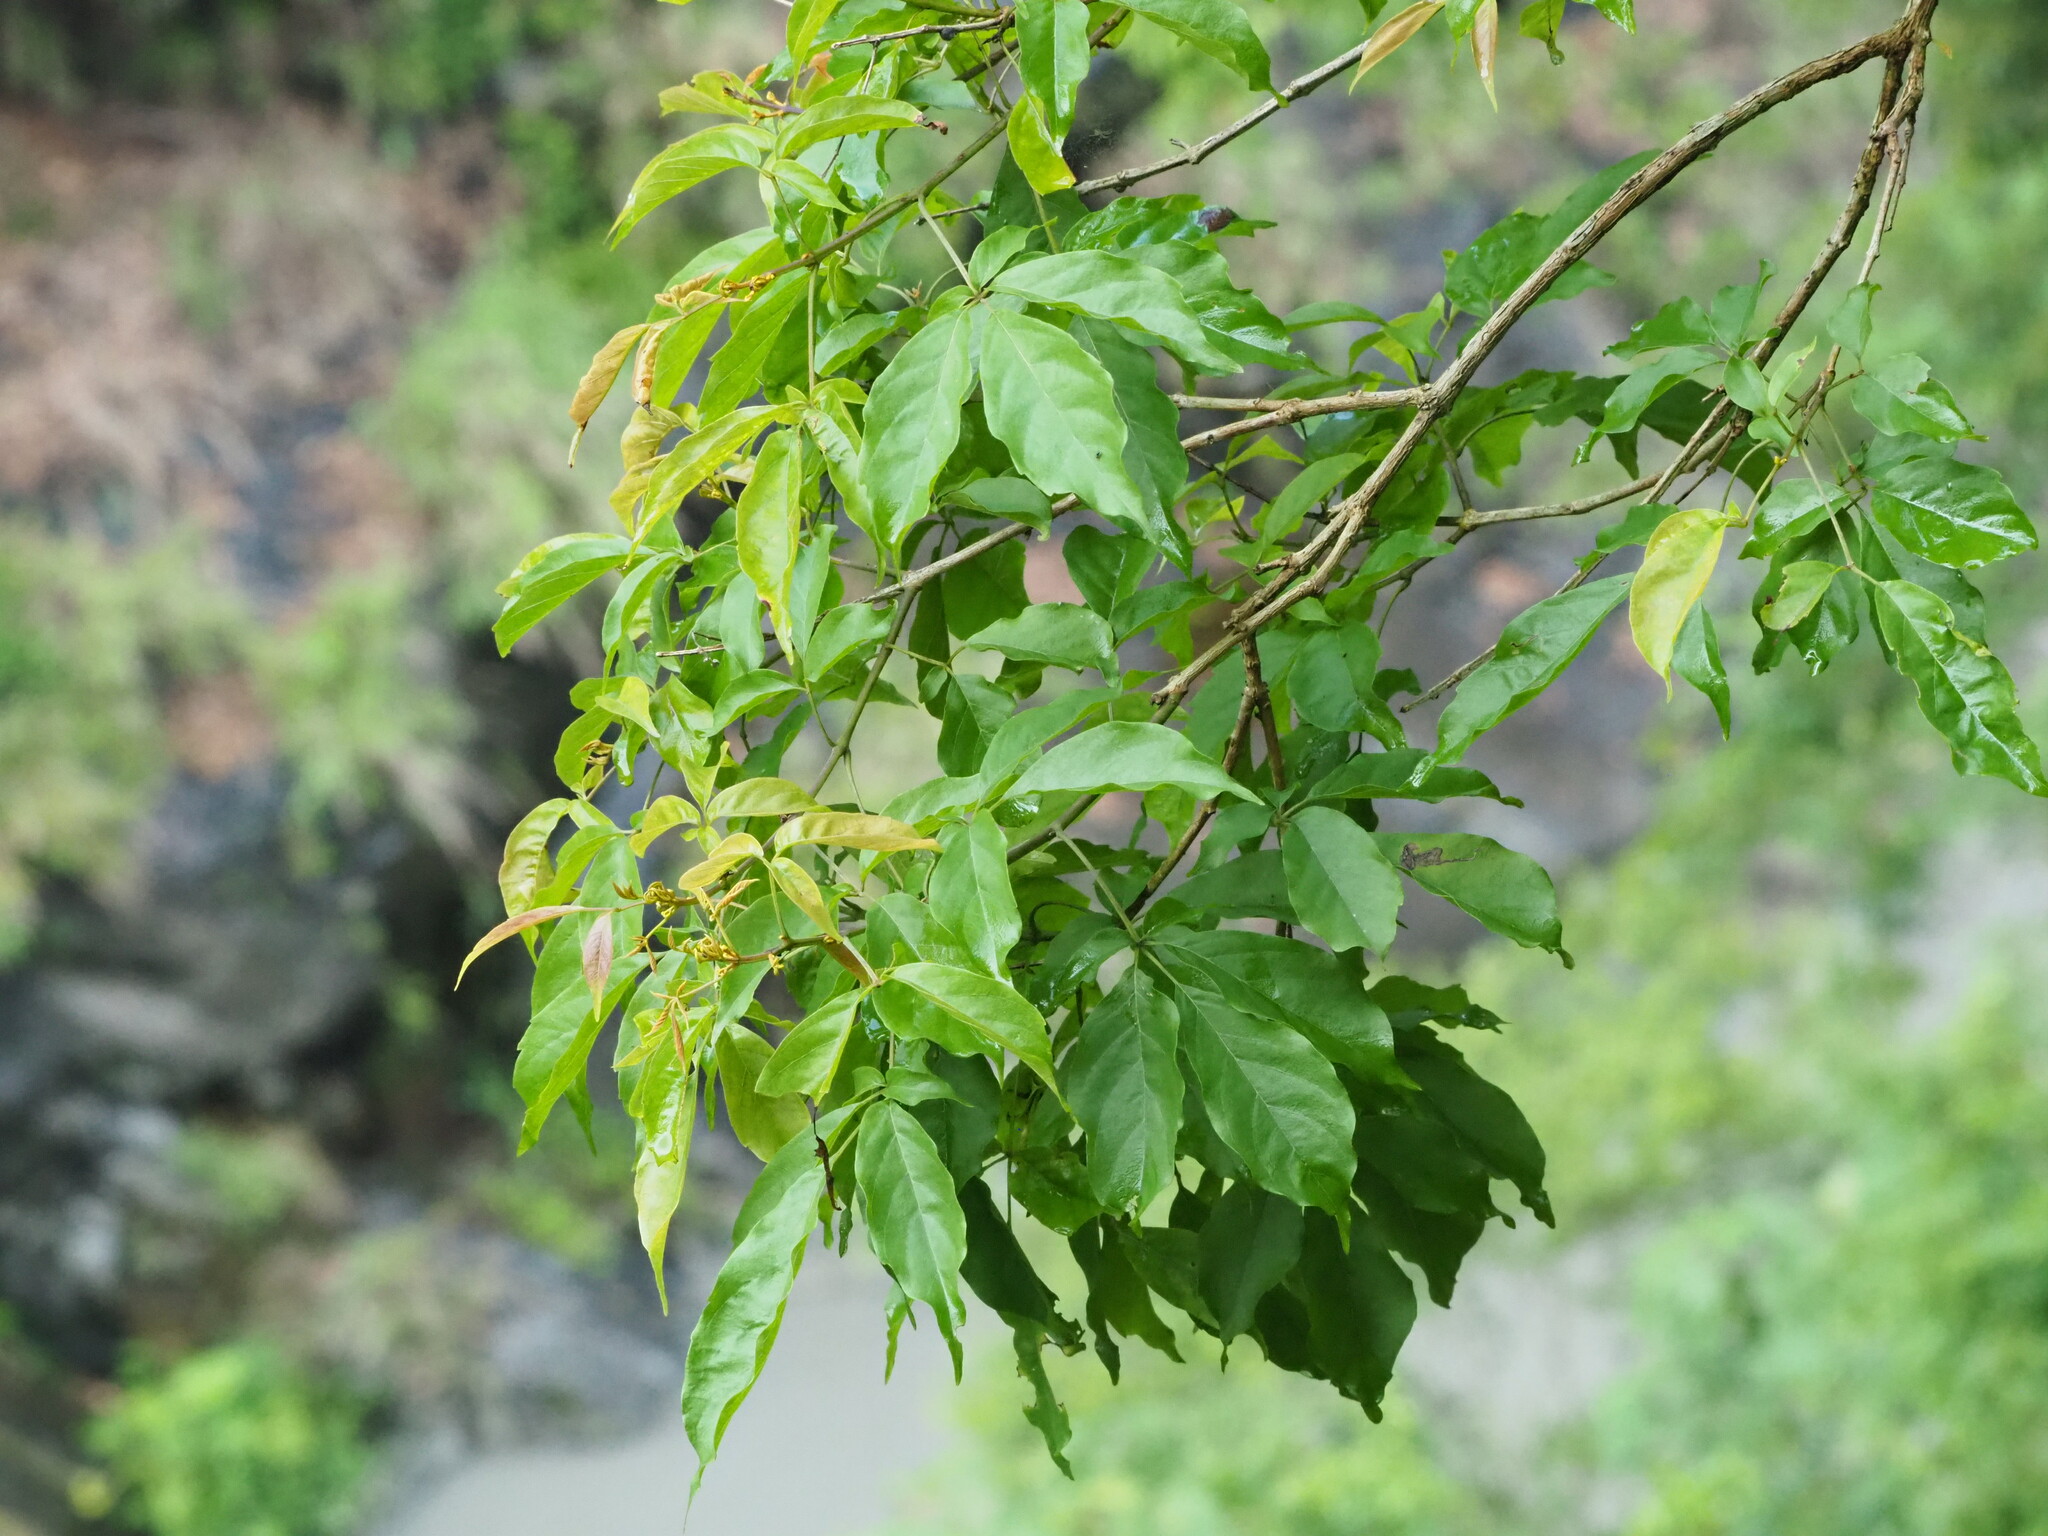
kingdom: Plantae
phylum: Tracheophyta
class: Magnoliopsida
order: Lamiales
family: Lamiaceae
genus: Vitex
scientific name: Vitex quinata
